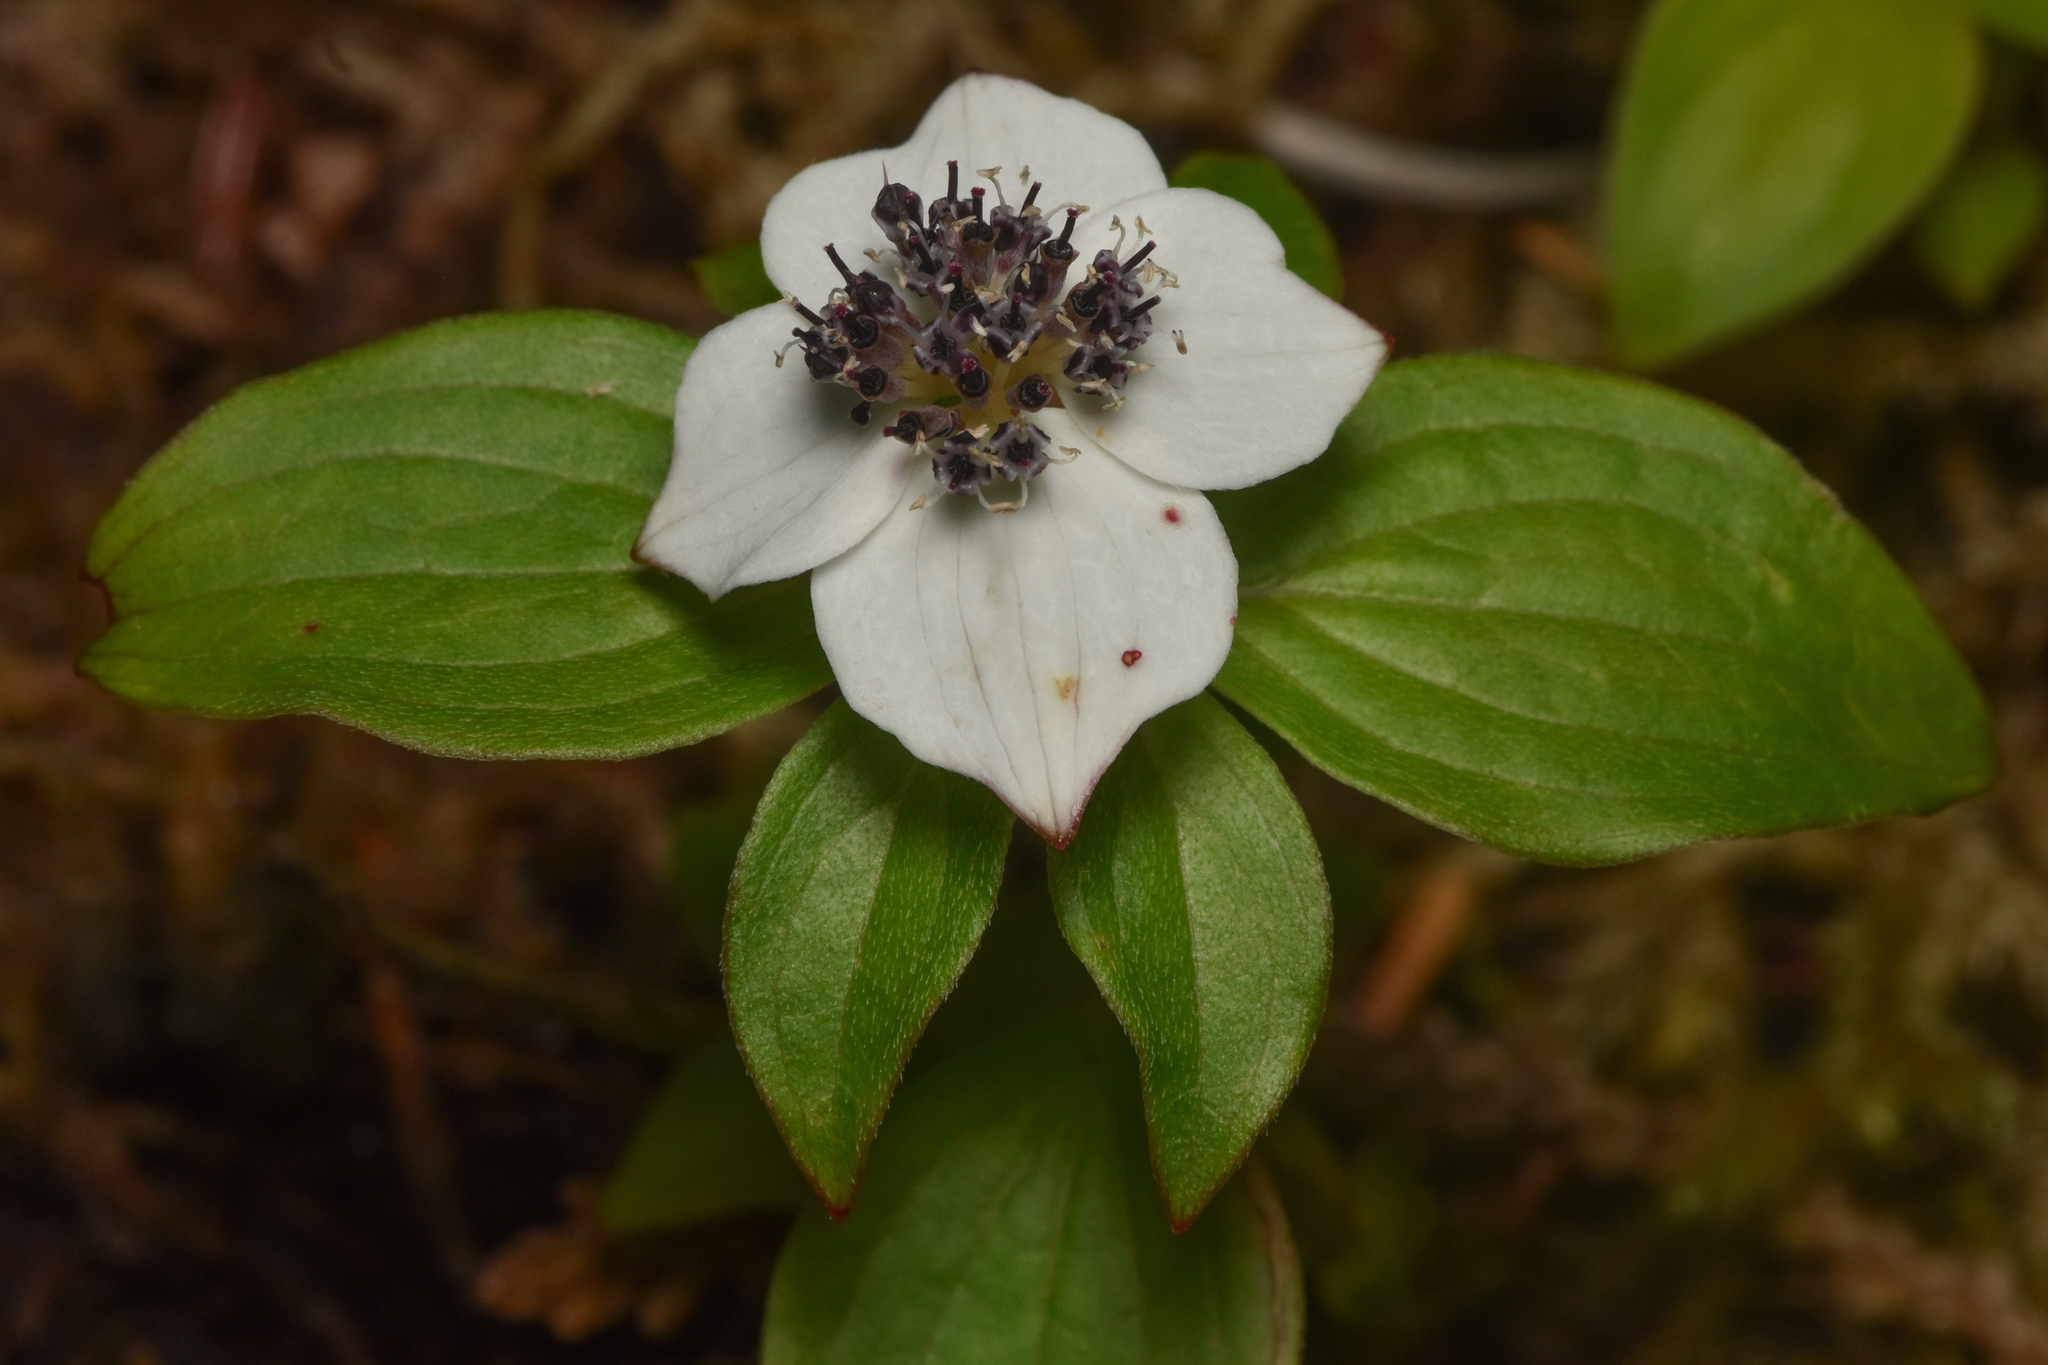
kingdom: Plantae
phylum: Tracheophyta
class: Magnoliopsida
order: Cornales
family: Cornaceae
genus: Cornus
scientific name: Cornus unalaschkensis
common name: Alaska bunchberry
